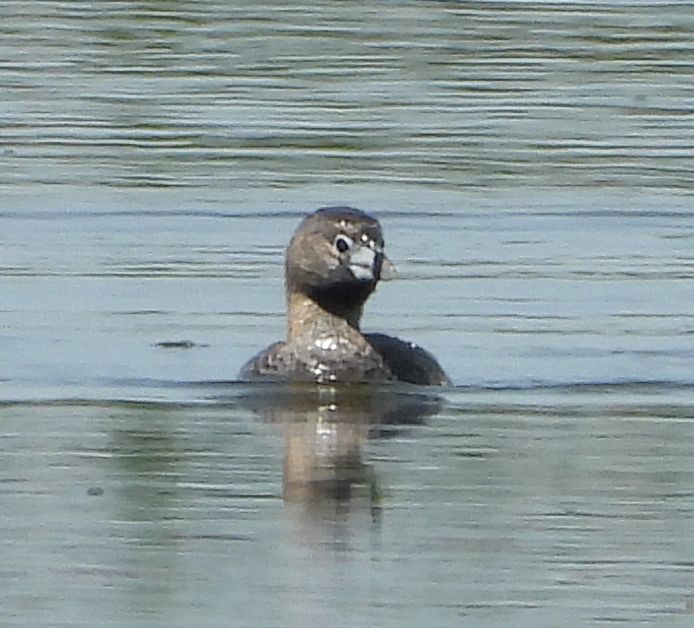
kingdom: Animalia
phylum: Chordata
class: Aves
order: Podicipediformes
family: Podicipedidae
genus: Podilymbus
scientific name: Podilymbus podiceps
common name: Pied-billed grebe
